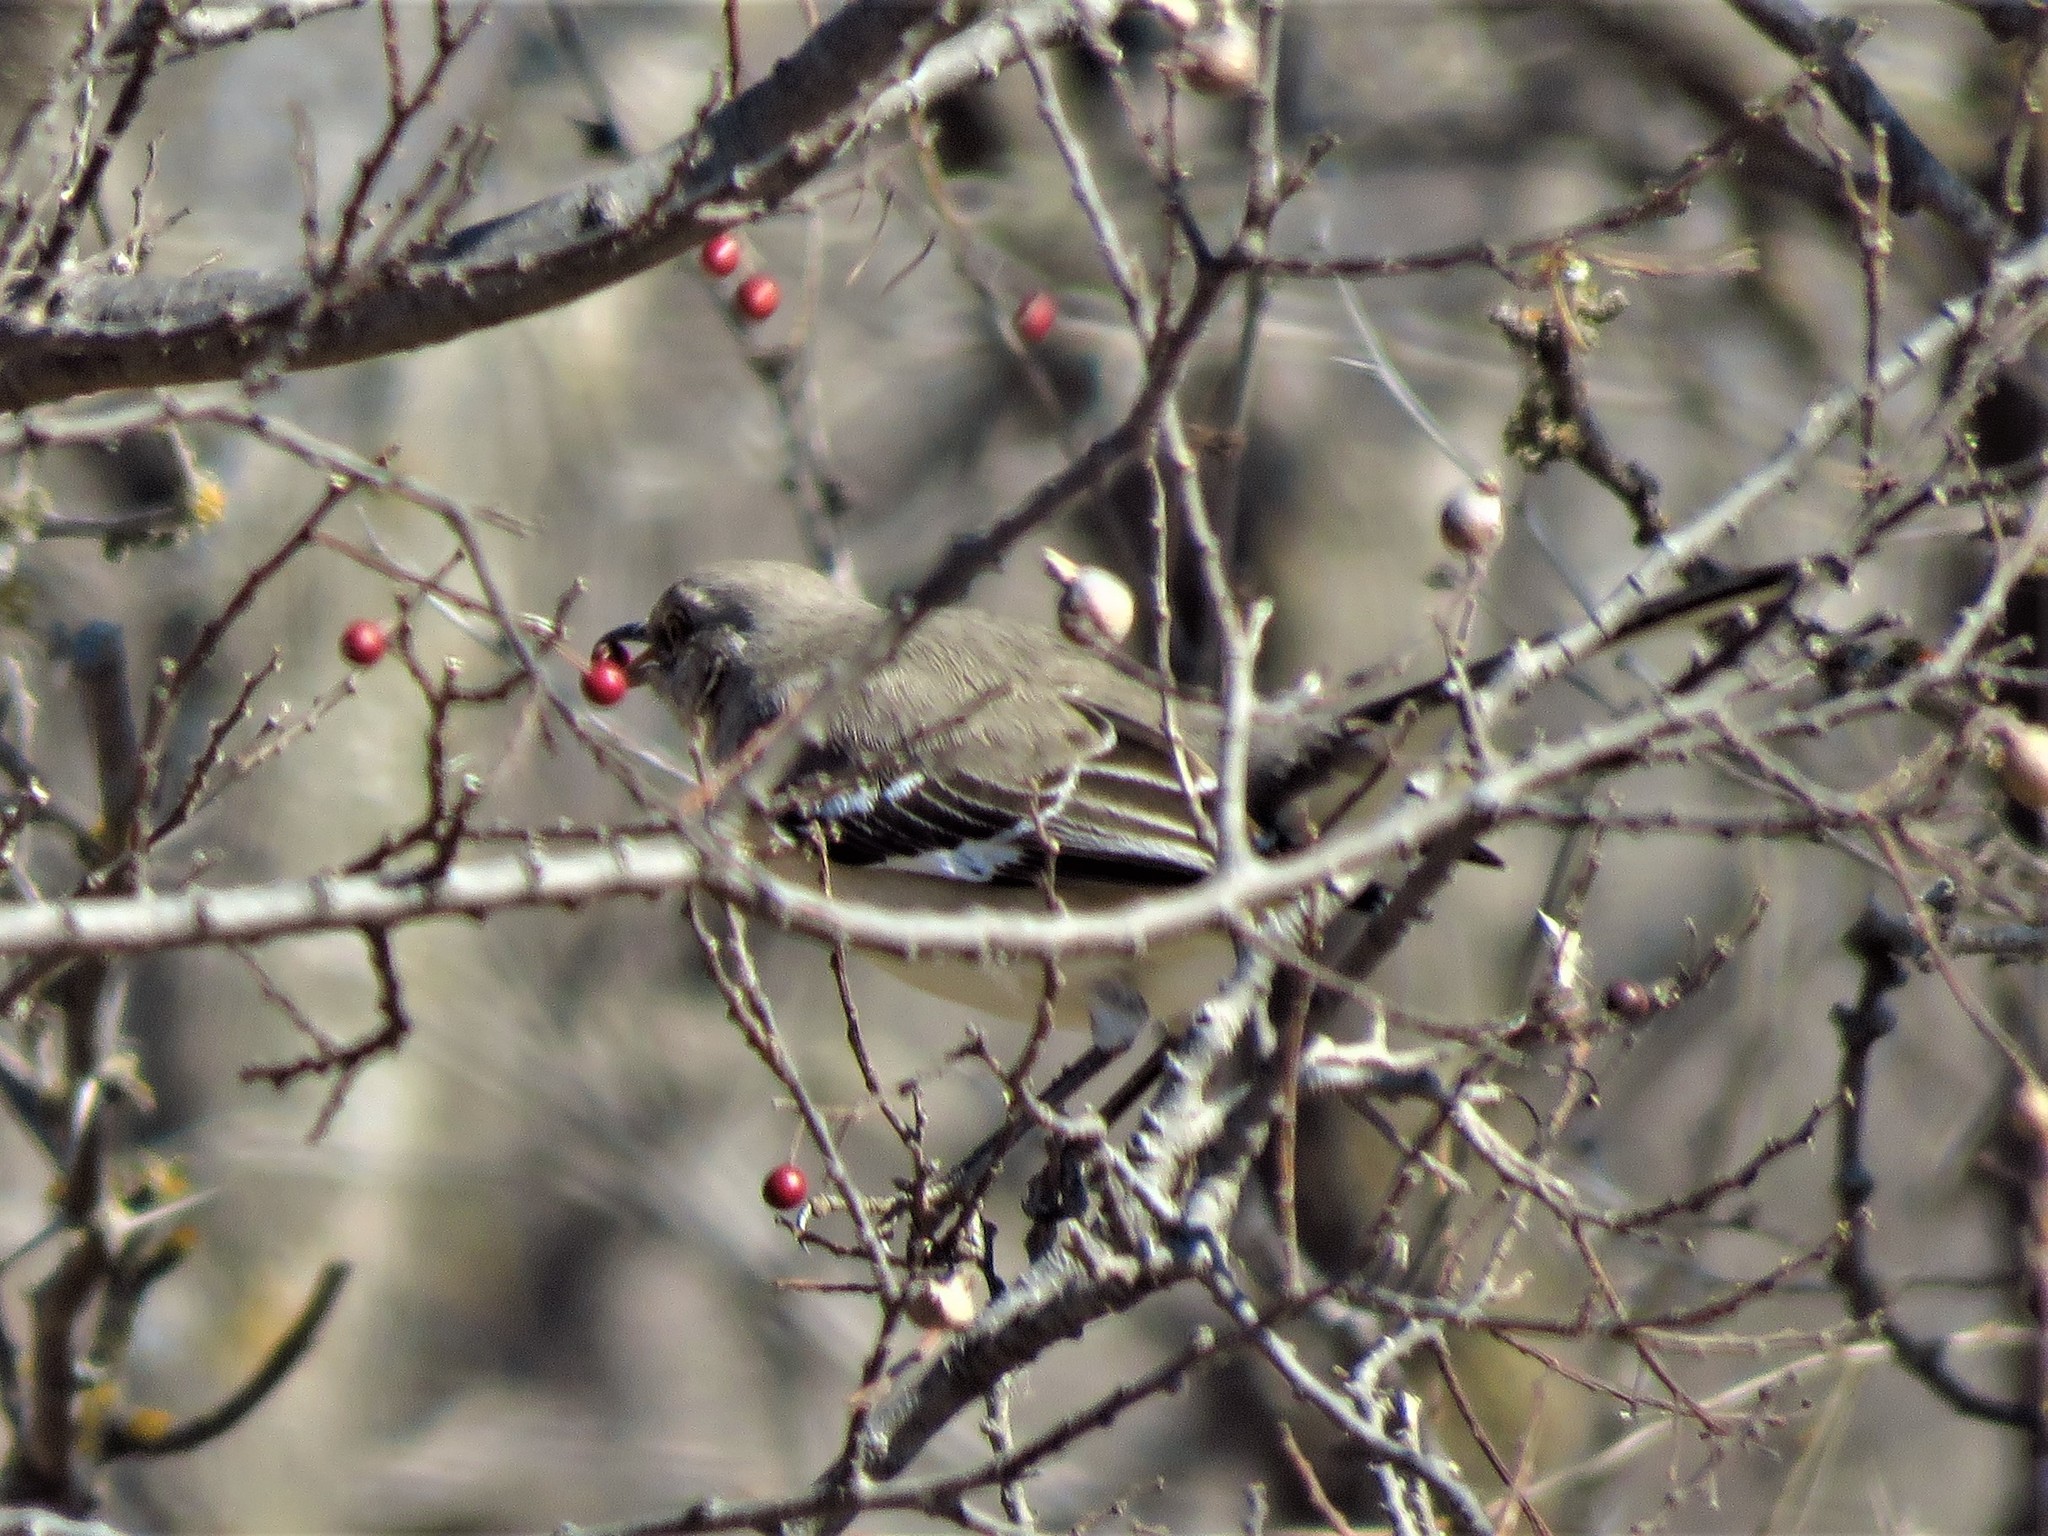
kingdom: Animalia
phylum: Chordata
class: Aves
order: Passeriformes
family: Mimidae
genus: Mimus
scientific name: Mimus polyglottos
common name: Northern mockingbird
